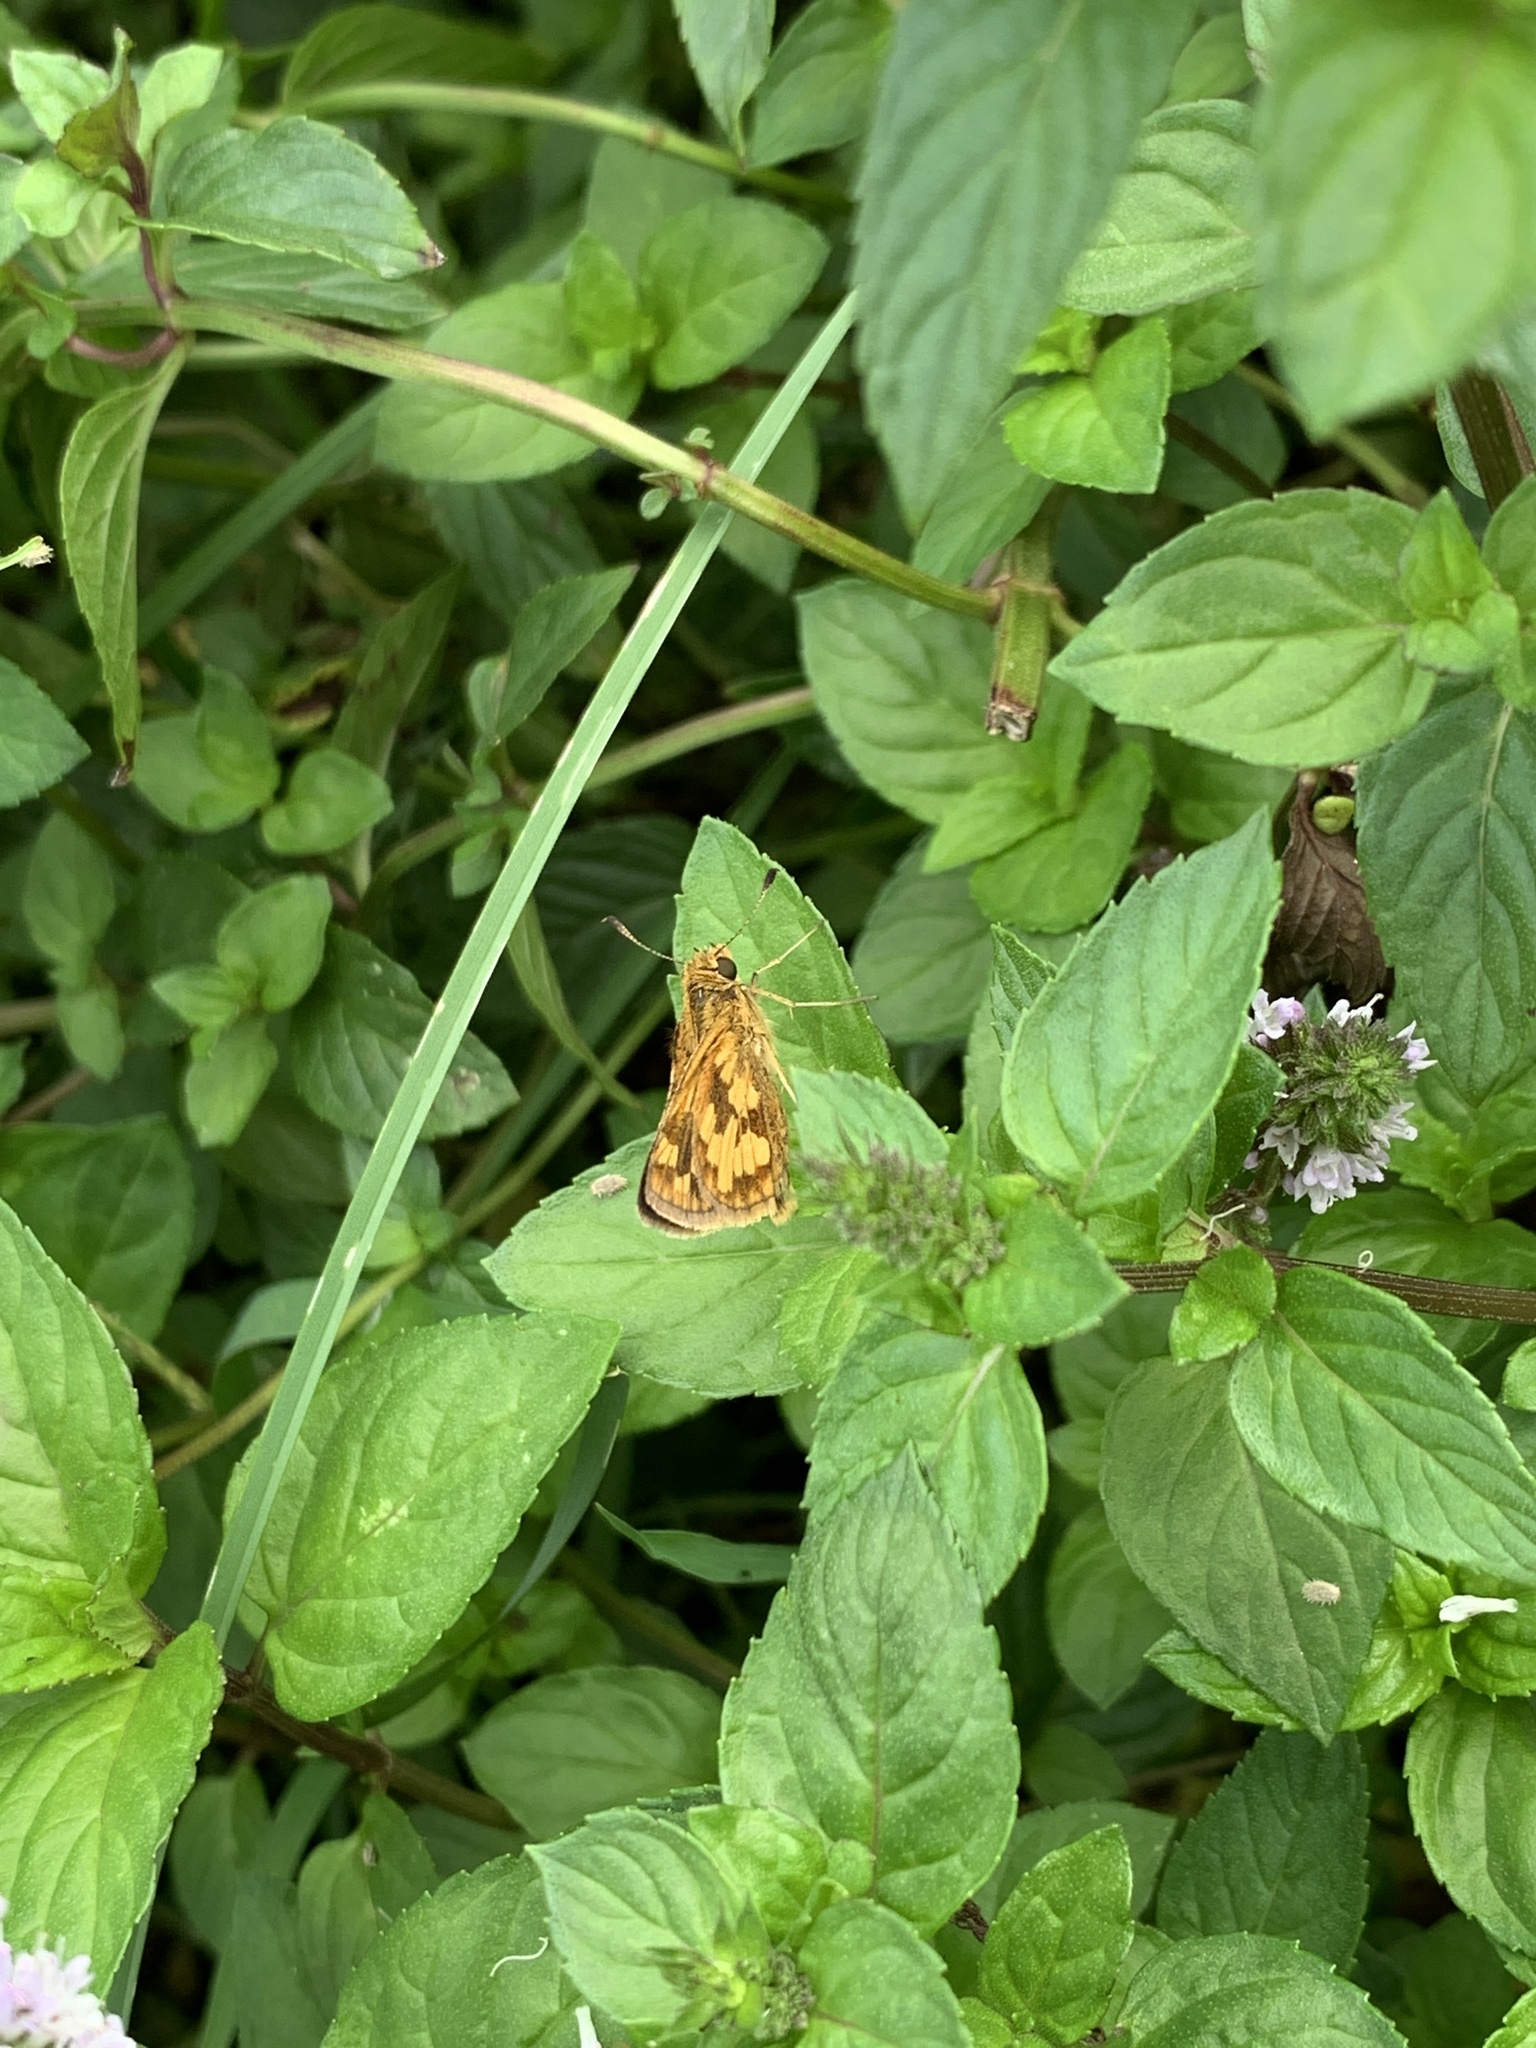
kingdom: Animalia
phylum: Arthropoda
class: Insecta
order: Lepidoptera
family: Hesperiidae
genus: Polites
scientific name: Polites coras
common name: Peck's skipper
